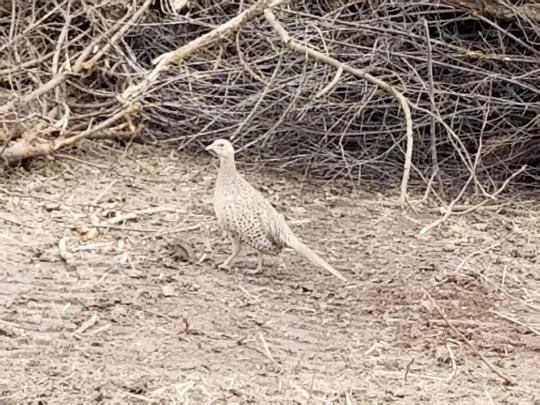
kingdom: Animalia
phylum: Chordata
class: Aves
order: Galliformes
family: Phasianidae
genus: Phasianus
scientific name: Phasianus colchicus
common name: Common pheasant
